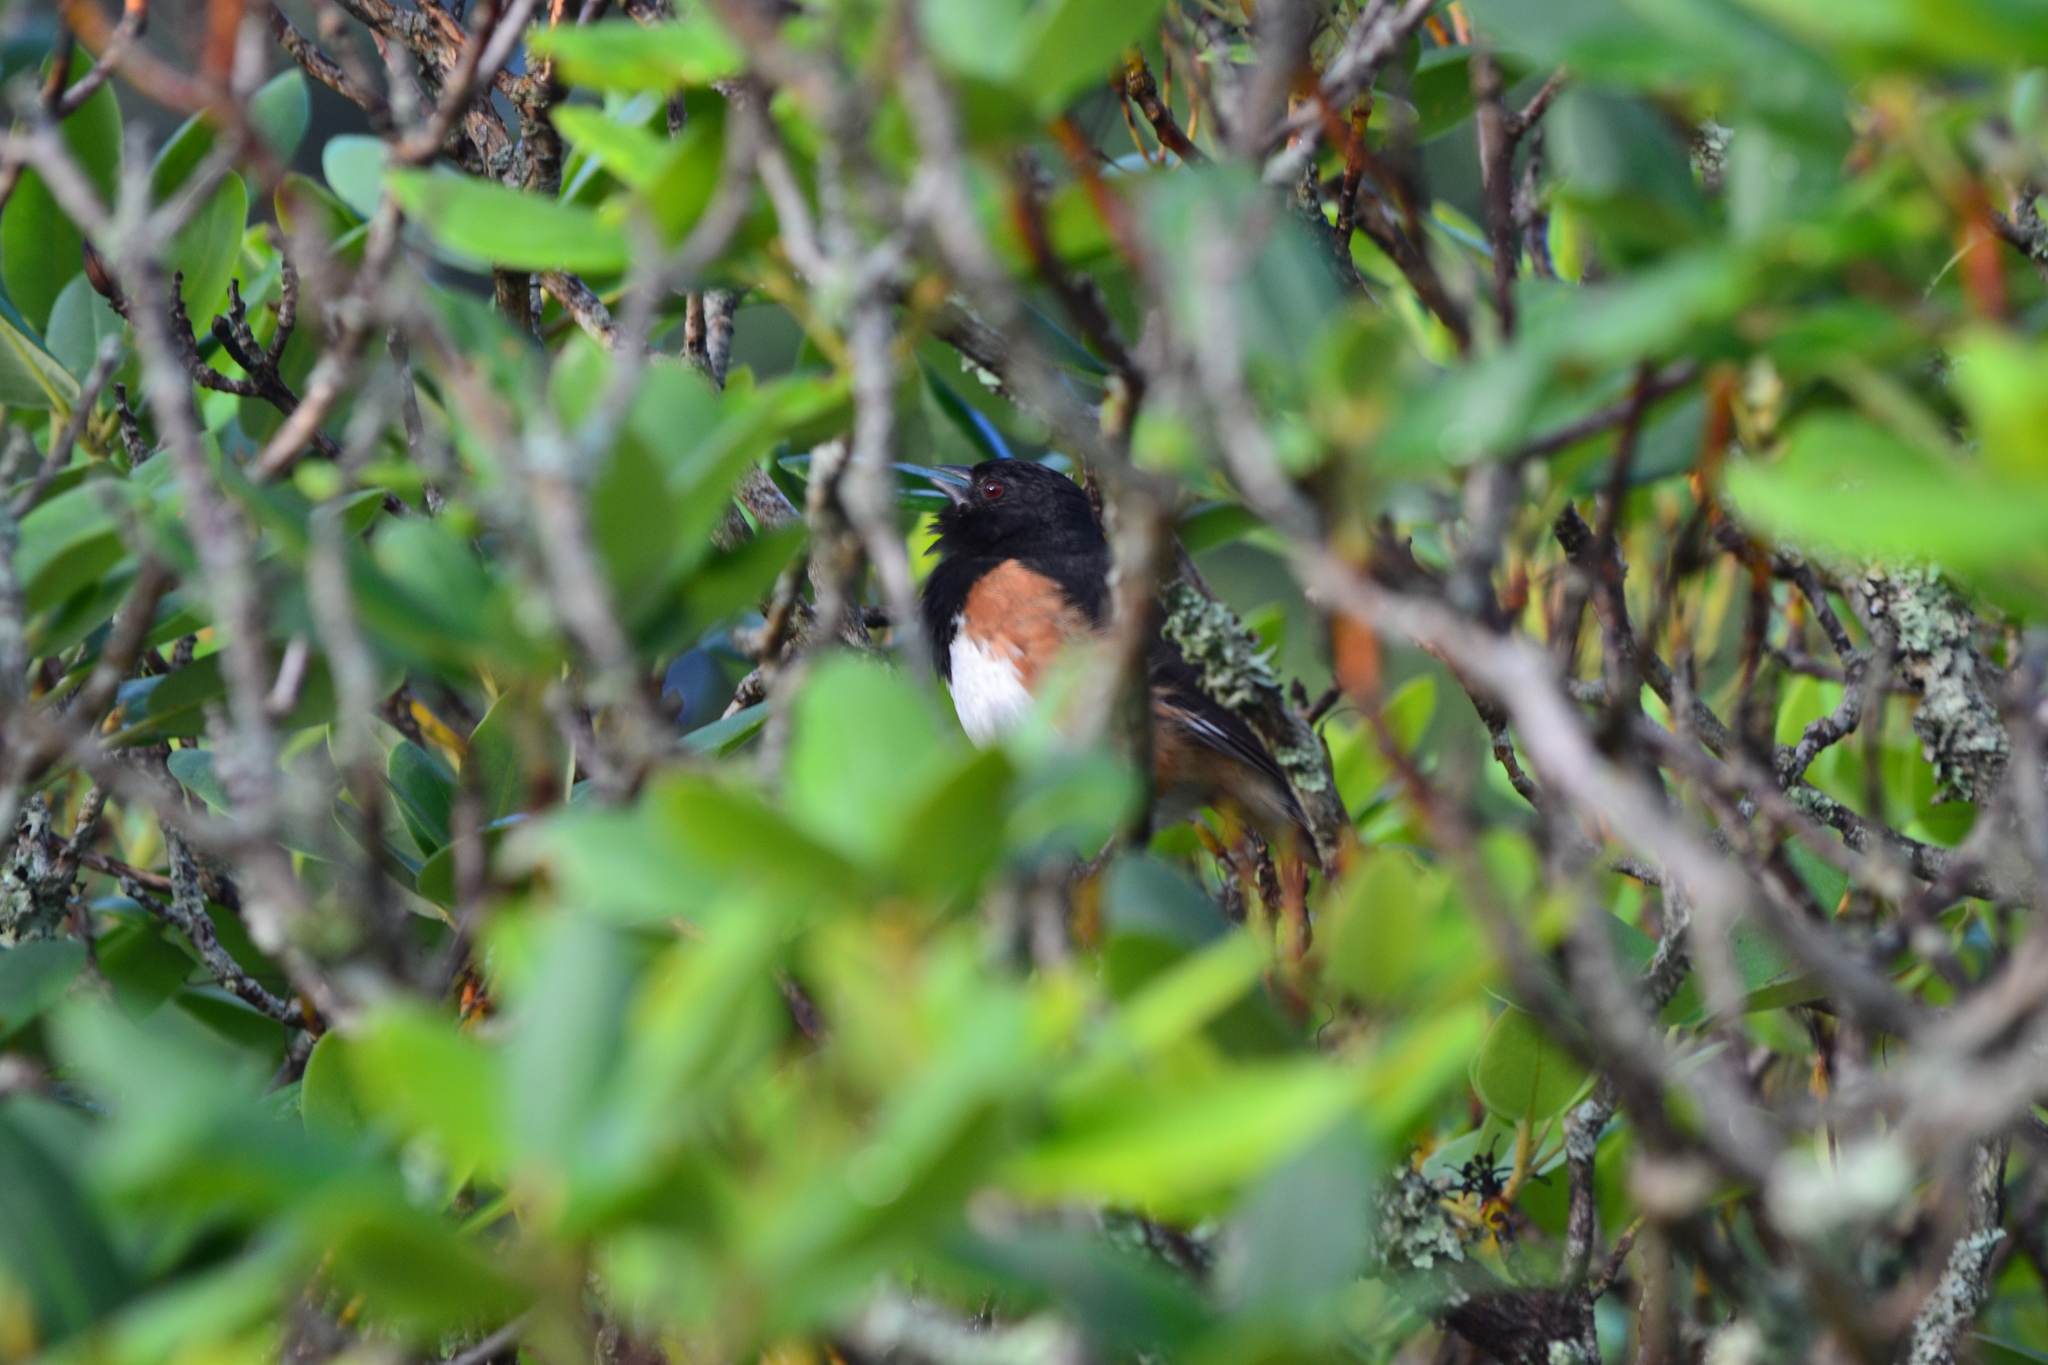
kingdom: Animalia
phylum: Chordata
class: Aves
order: Passeriformes
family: Passerellidae
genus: Pipilo
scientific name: Pipilo erythrophthalmus
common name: Eastern towhee
